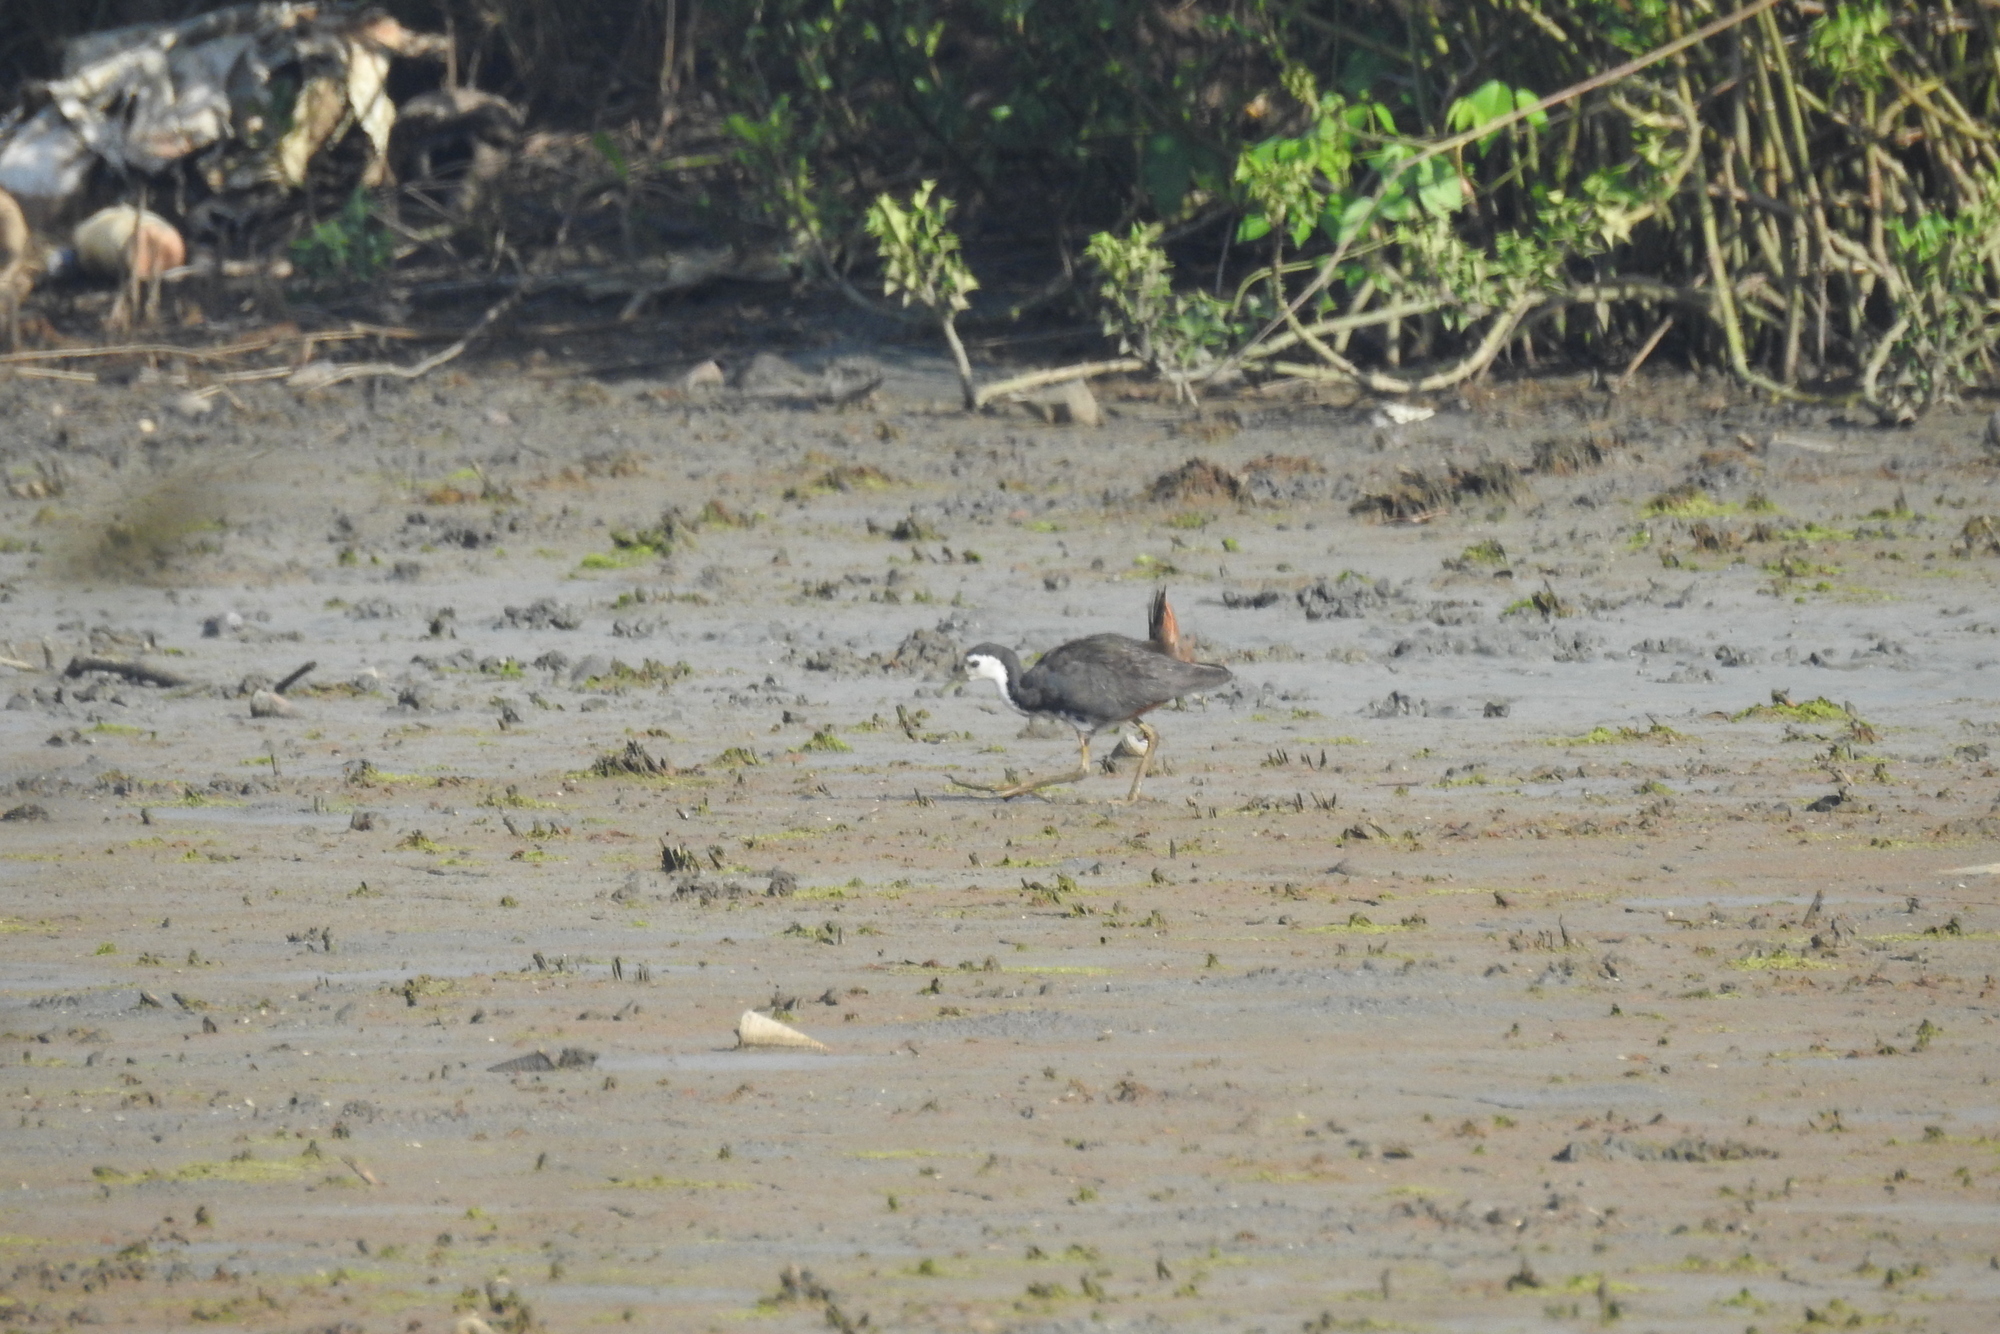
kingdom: Animalia
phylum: Chordata
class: Aves
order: Gruiformes
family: Rallidae
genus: Amaurornis
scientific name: Amaurornis phoenicurus
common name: White-breasted waterhen
